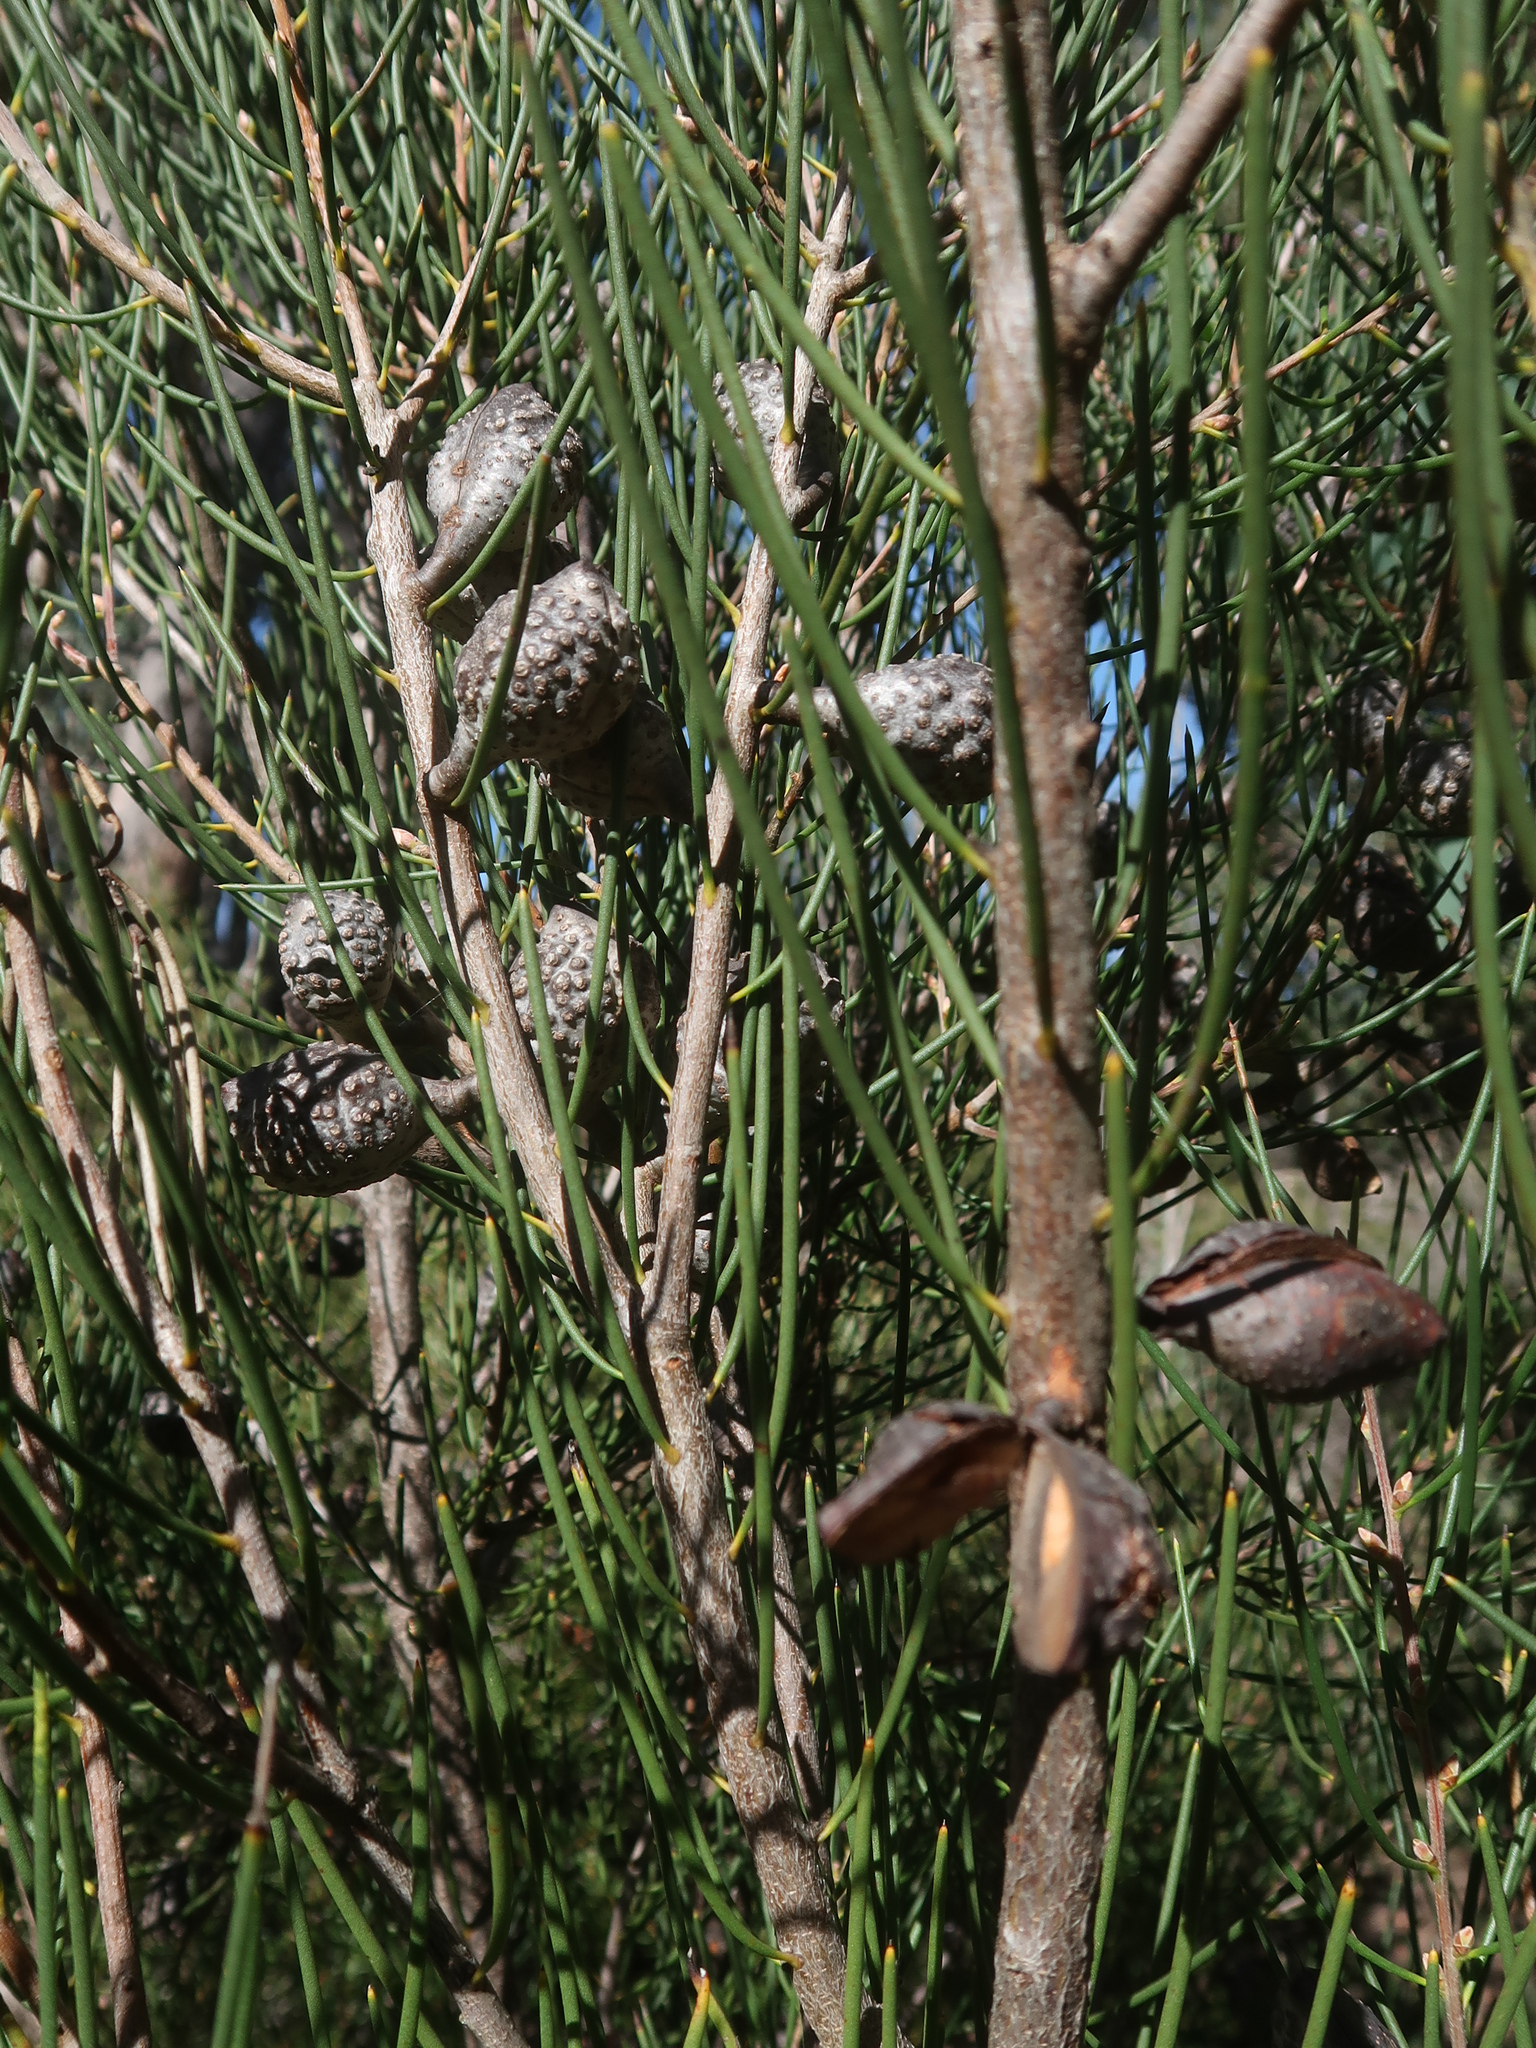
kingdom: Plantae
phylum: Tracheophyta
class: Magnoliopsida
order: Proteales
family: Proteaceae
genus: Hakea
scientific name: Hakea lissosperma
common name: Mountain needlewood
